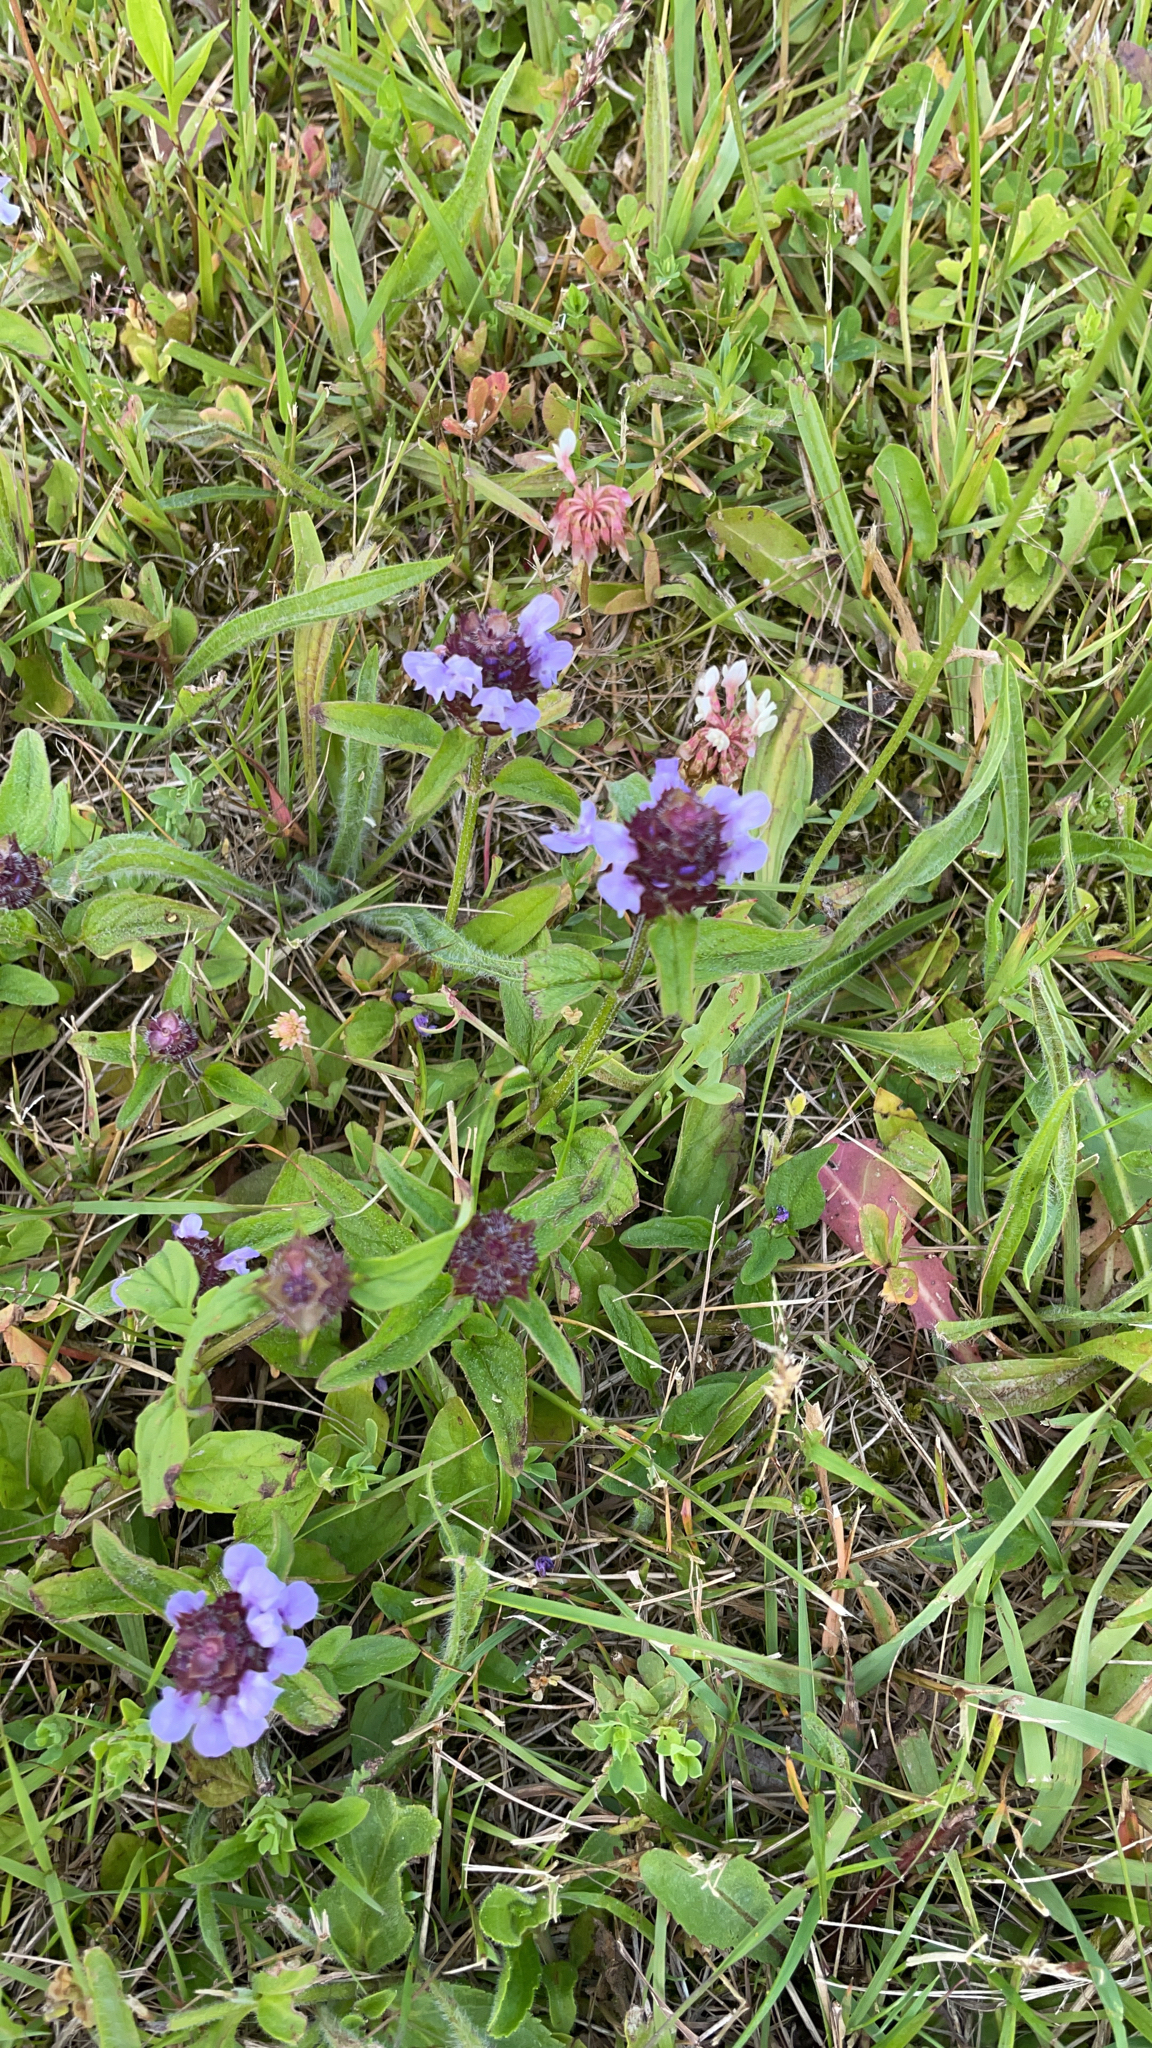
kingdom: Plantae
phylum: Tracheophyta
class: Magnoliopsida
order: Lamiales
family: Lamiaceae
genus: Prunella
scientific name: Prunella vulgaris
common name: Heal-all
